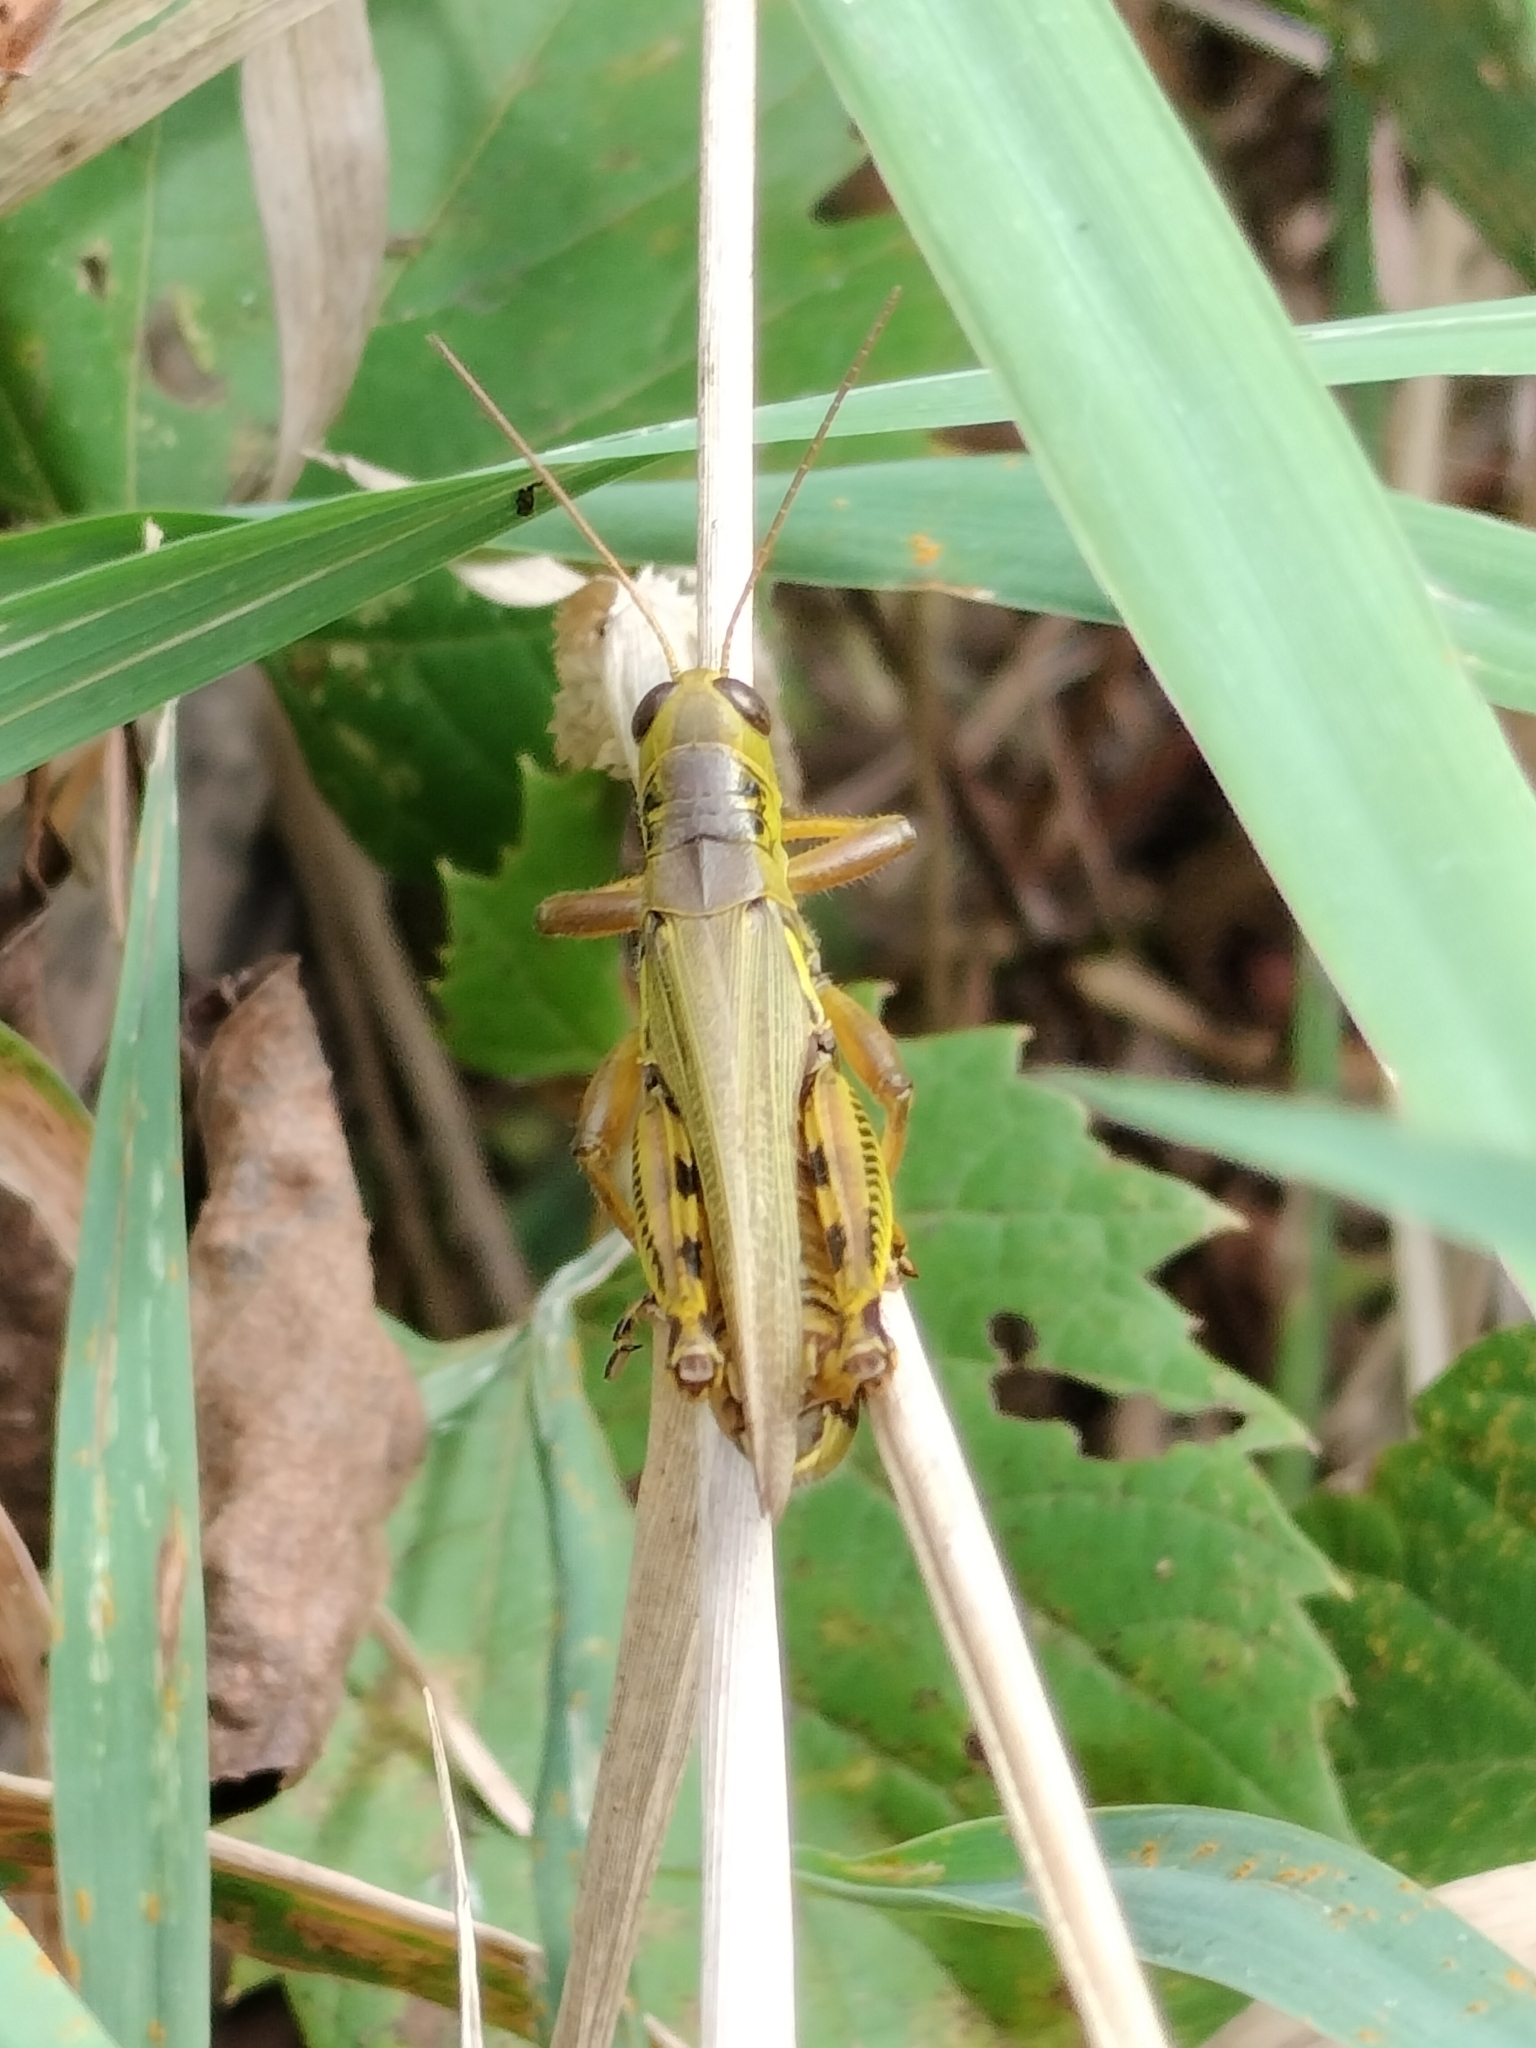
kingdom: Animalia
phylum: Arthropoda
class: Insecta
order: Orthoptera
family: Acrididae
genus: Melanoplus
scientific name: Melanoplus differentialis
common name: Differential grasshopper
